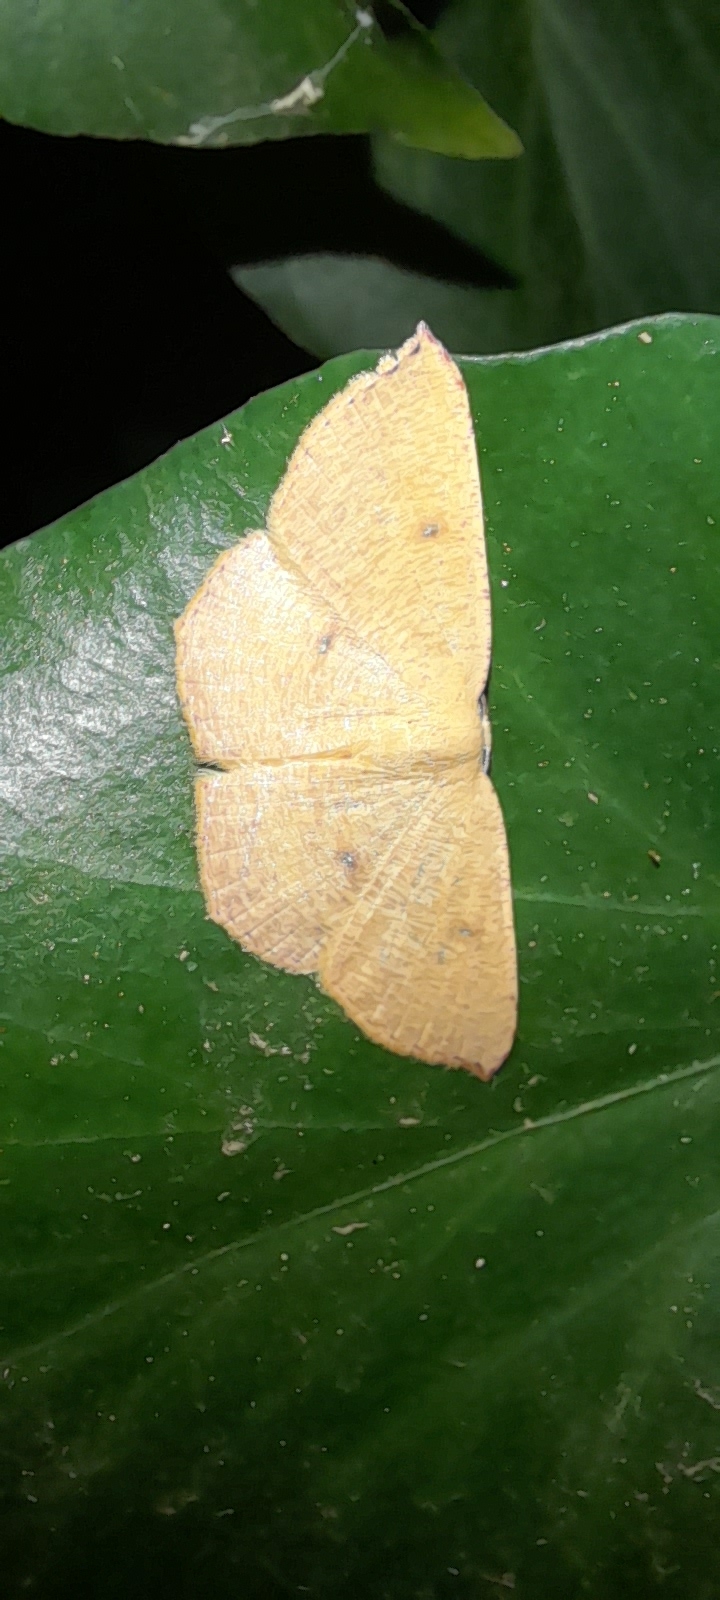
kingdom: Animalia
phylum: Arthropoda
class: Insecta
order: Lepidoptera
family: Geometridae
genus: Cyclophora
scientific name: Cyclophora puppillaria
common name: Blair's mocha
